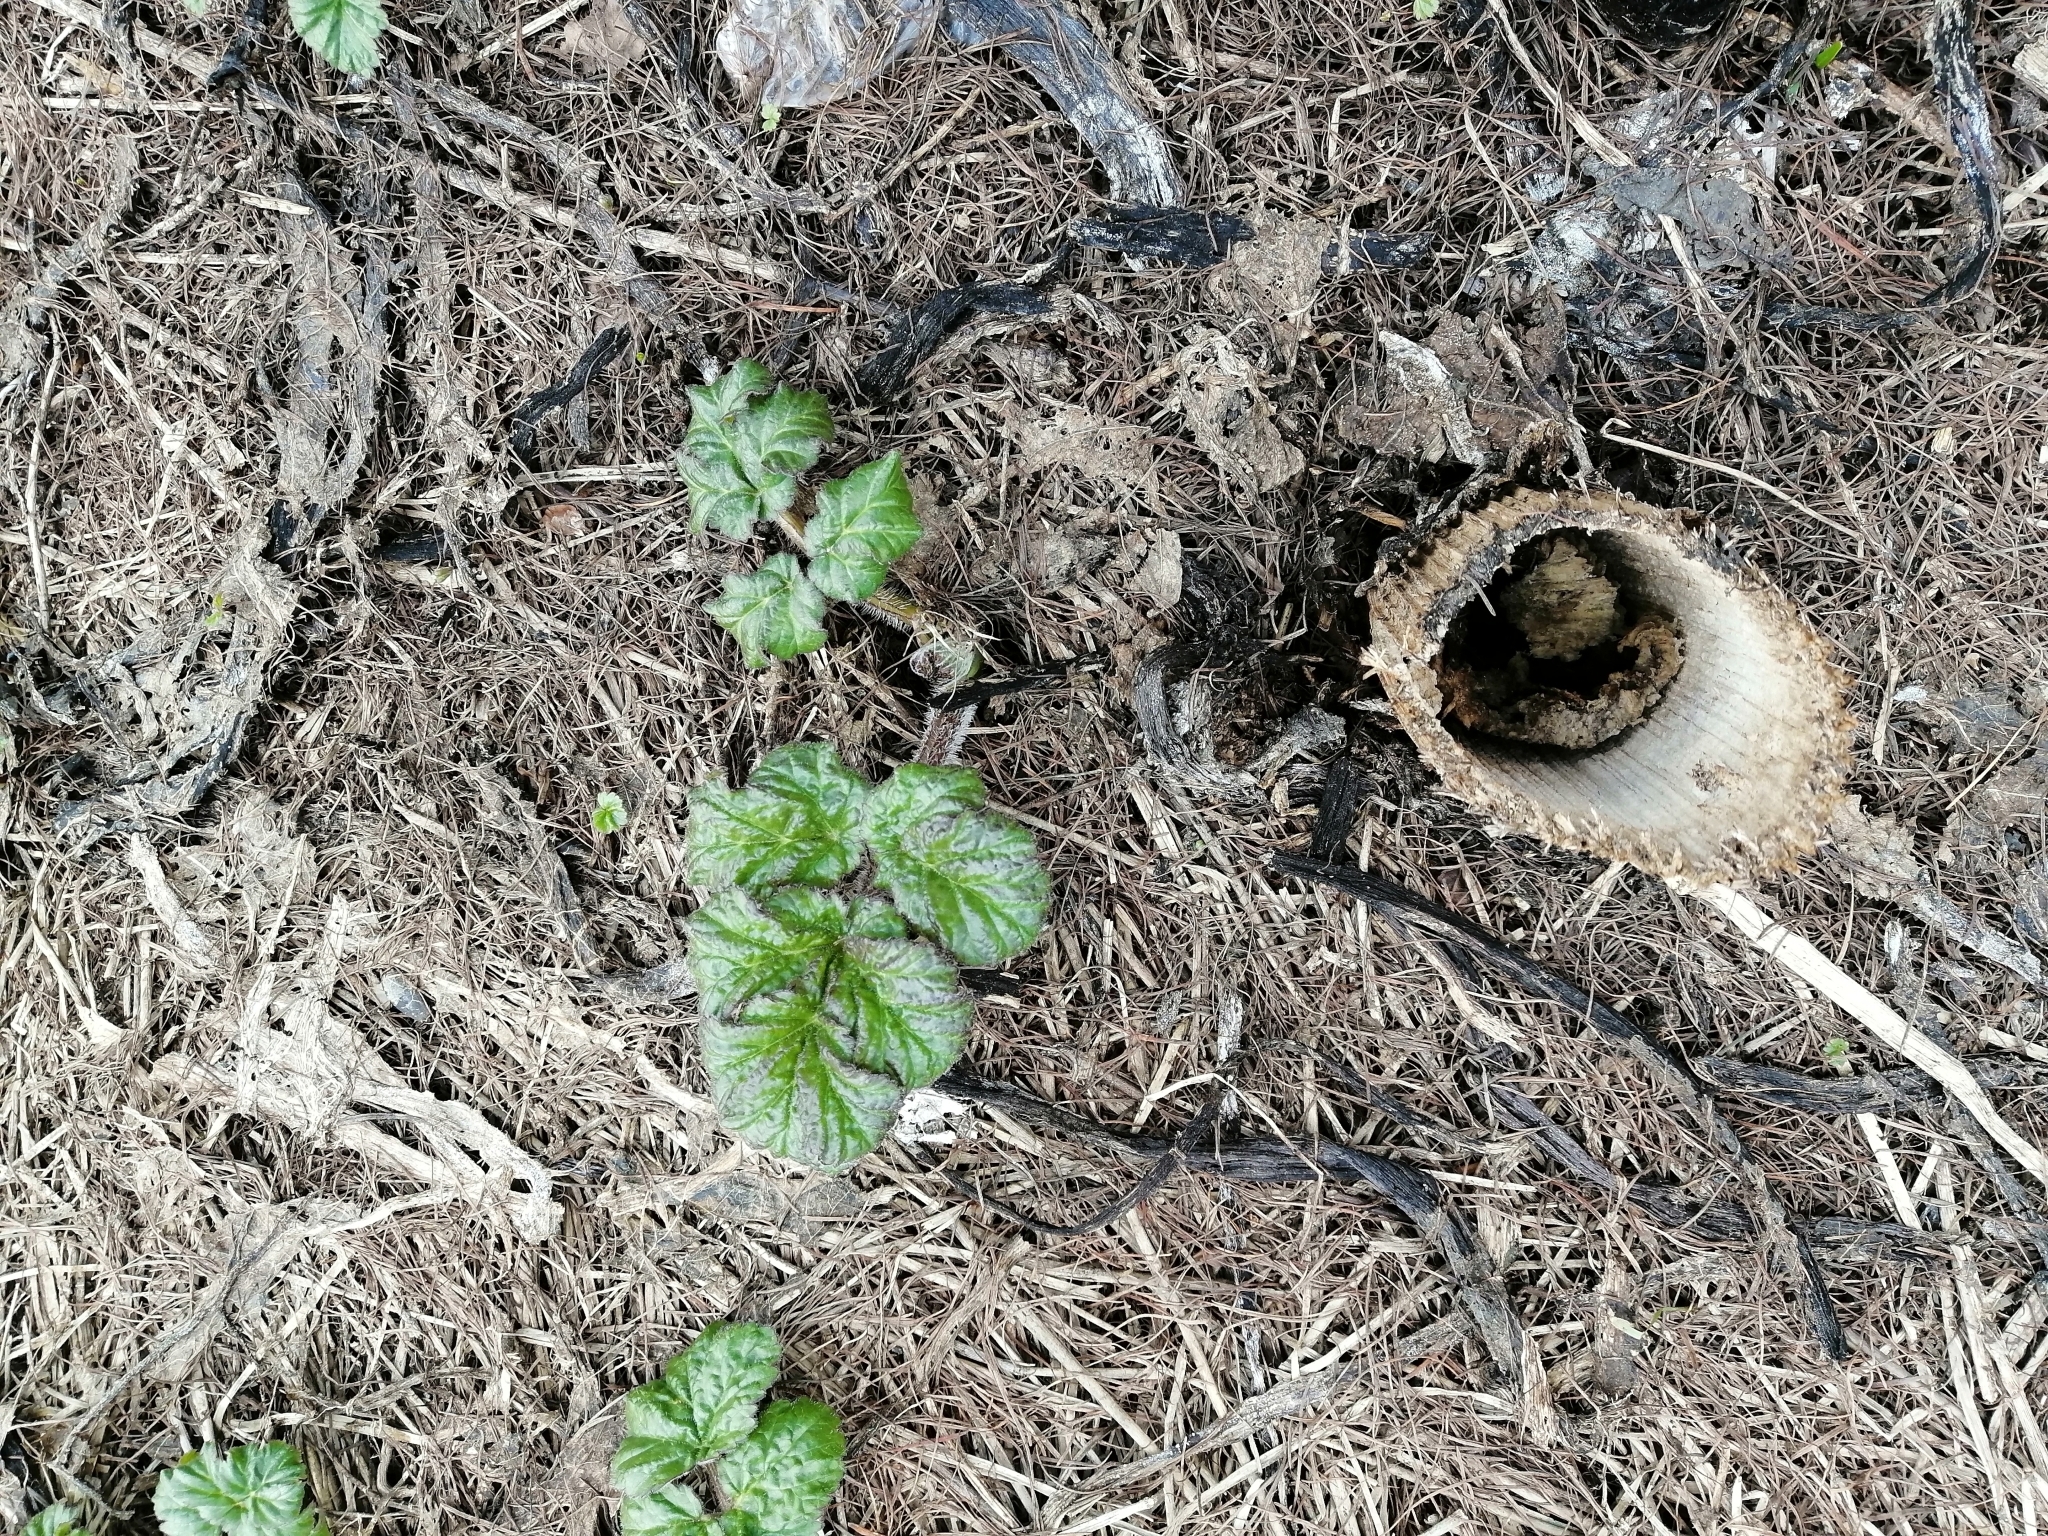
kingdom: Plantae
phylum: Tracheophyta
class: Magnoliopsida
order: Apiales
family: Apiaceae
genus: Heracleum
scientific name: Heracleum sosnowskyi
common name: Sosnowsky's hogweed
